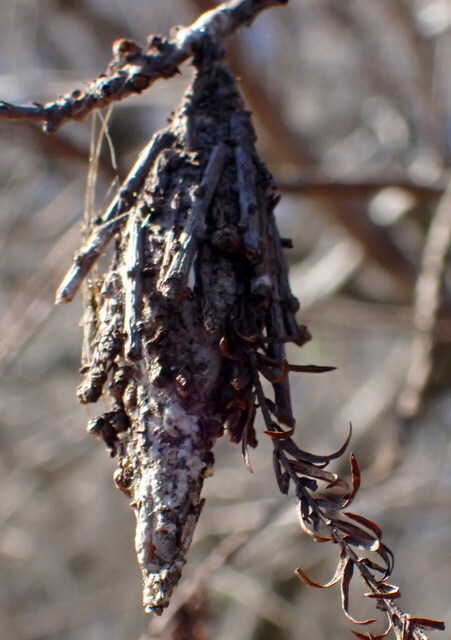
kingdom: Animalia
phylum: Arthropoda
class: Insecta
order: Lepidoptera
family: Psychidae
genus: Thyridopteryx
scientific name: Thyridopteryx ephemeraeformis
